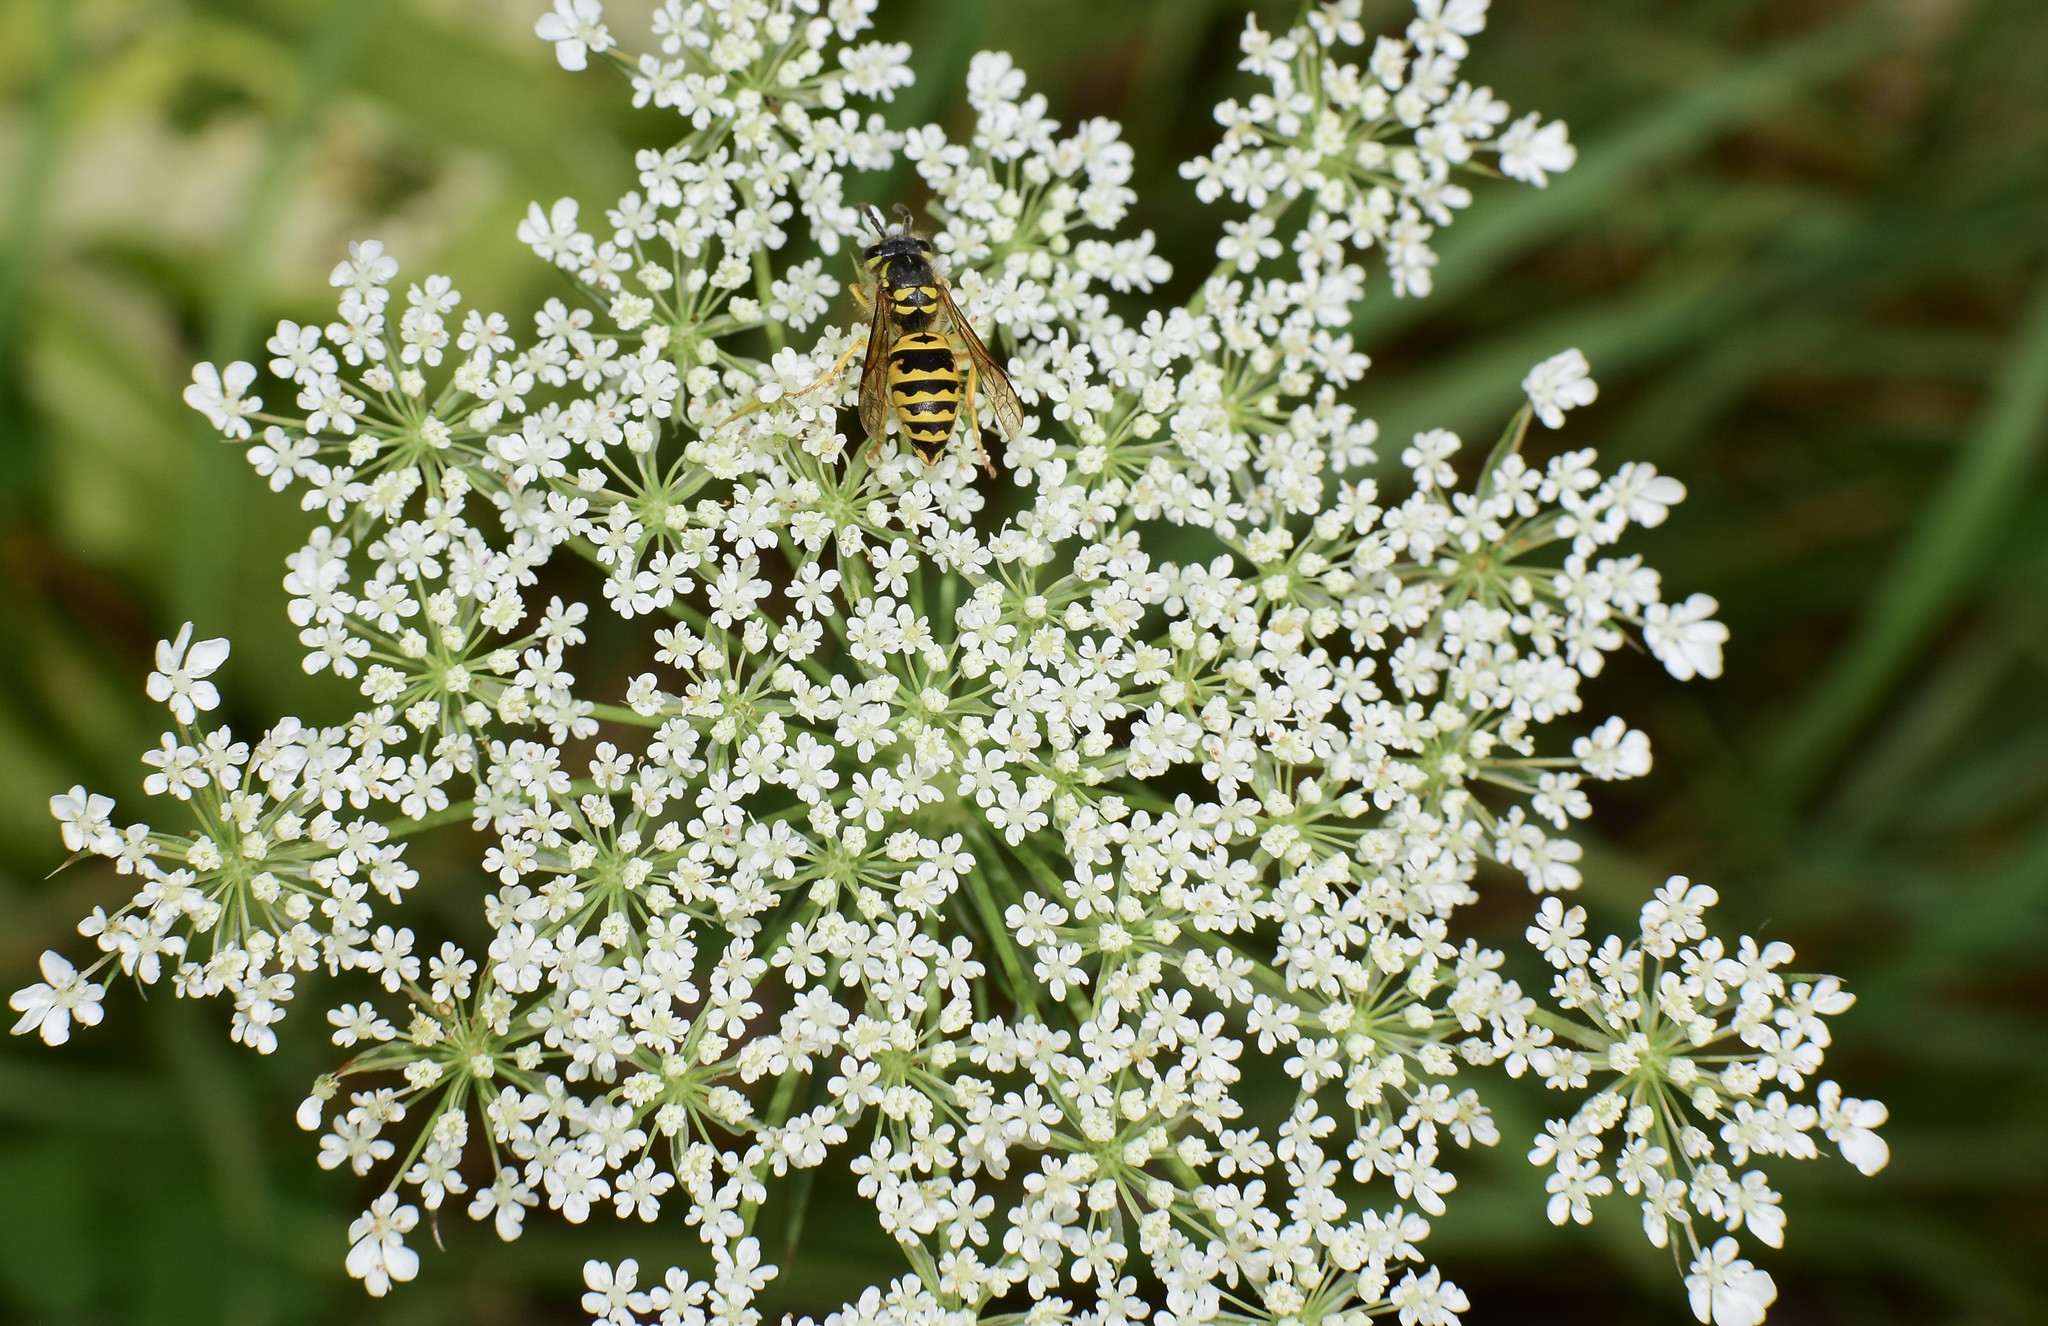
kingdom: Animalia
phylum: Arthropoda
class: Insecta
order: Hymenoptera
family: Vespidae
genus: Vespula
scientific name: Vespula maculifrons
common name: Eastern yellowjacket
